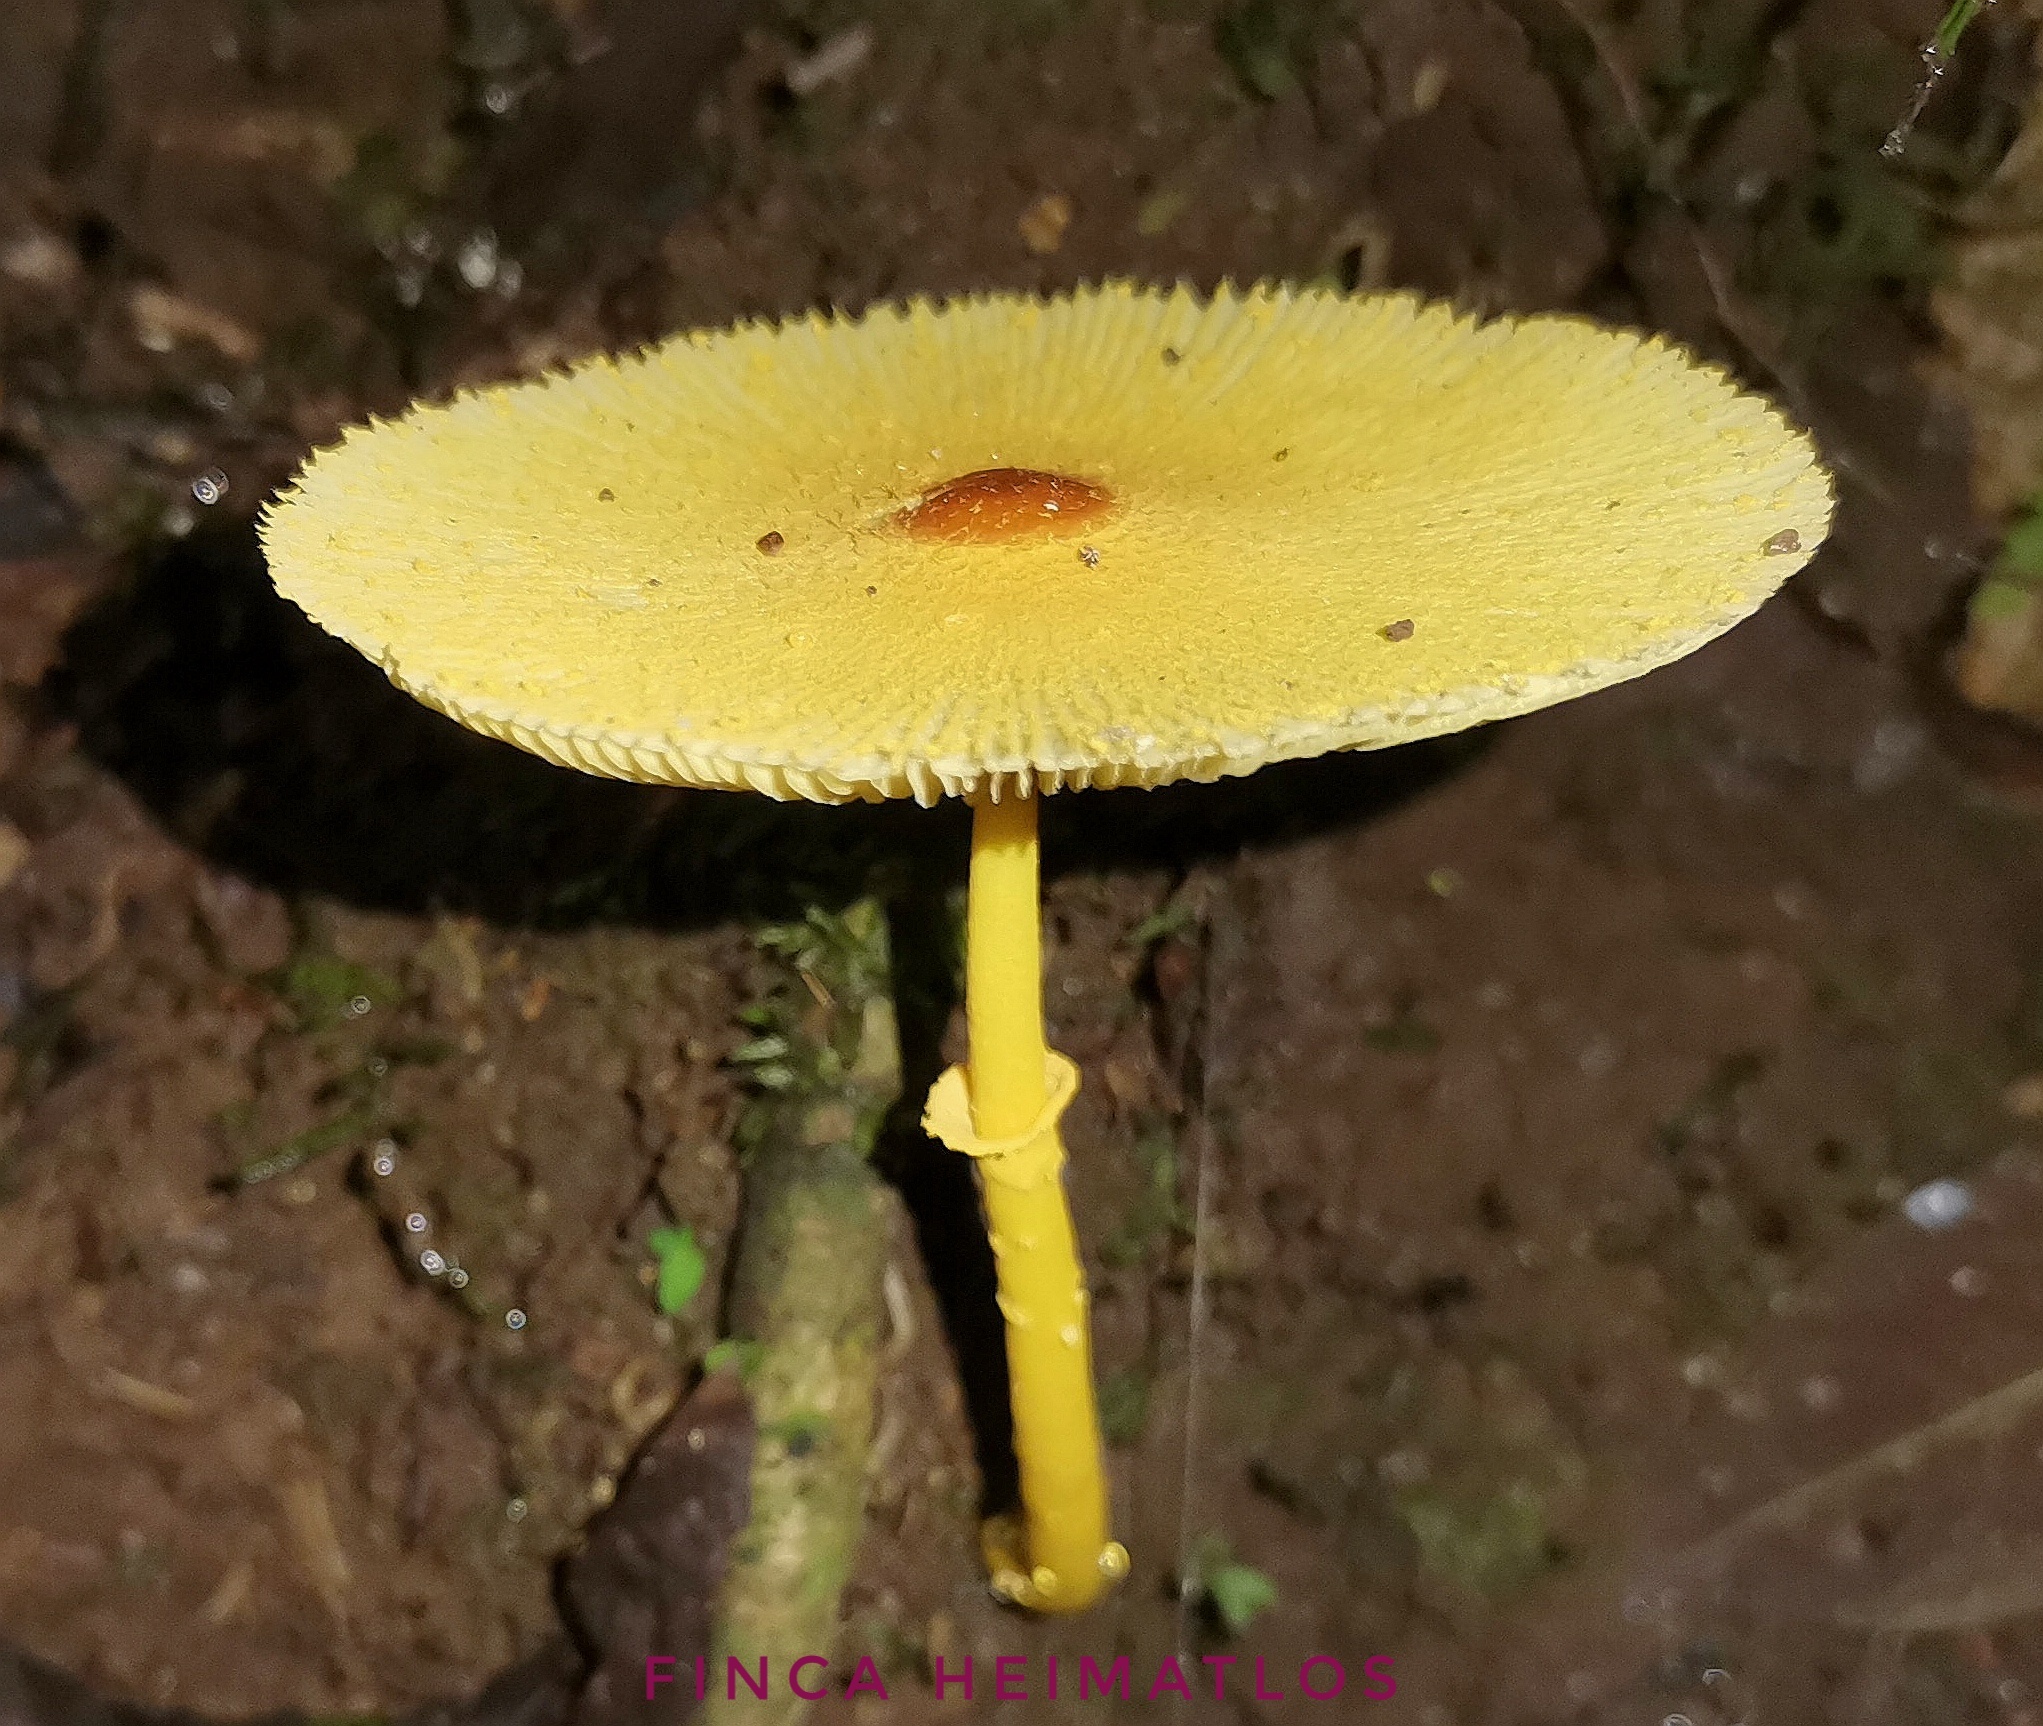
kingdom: Fungi
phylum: Basidiomycota
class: Agaricomycetes
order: Agaricales
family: Agaricaceae
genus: Leucocoprinus
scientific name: Leucocoprinus brunneoluteus
